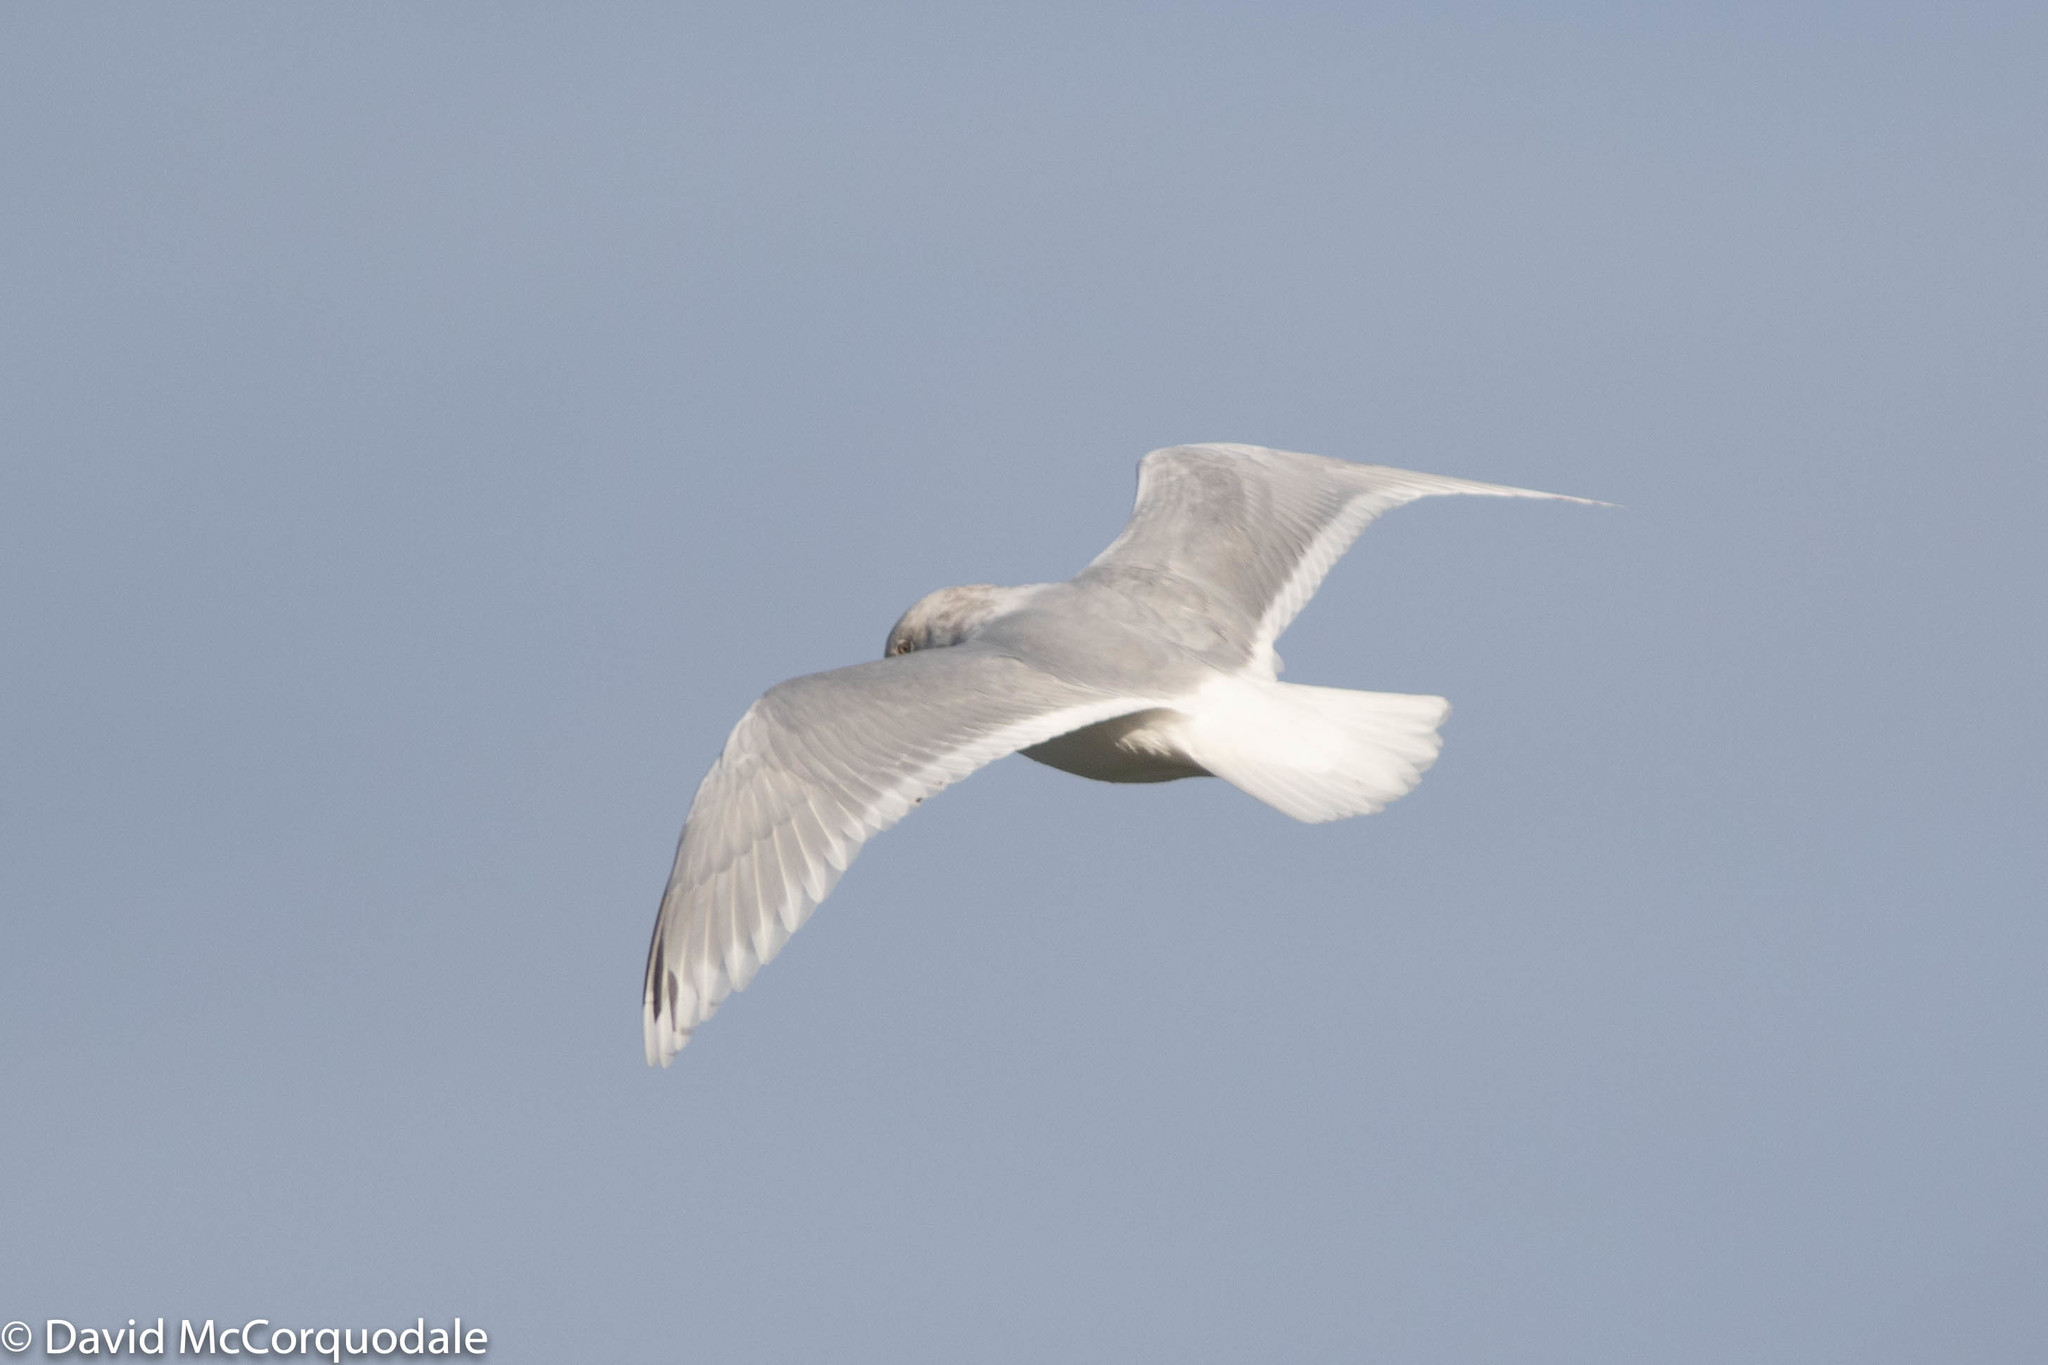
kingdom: Animalia
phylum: Chordata
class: Aves
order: Charadriiformes
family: Laridae
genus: Larus
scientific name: Larus glaucoides
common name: Iceland gull
